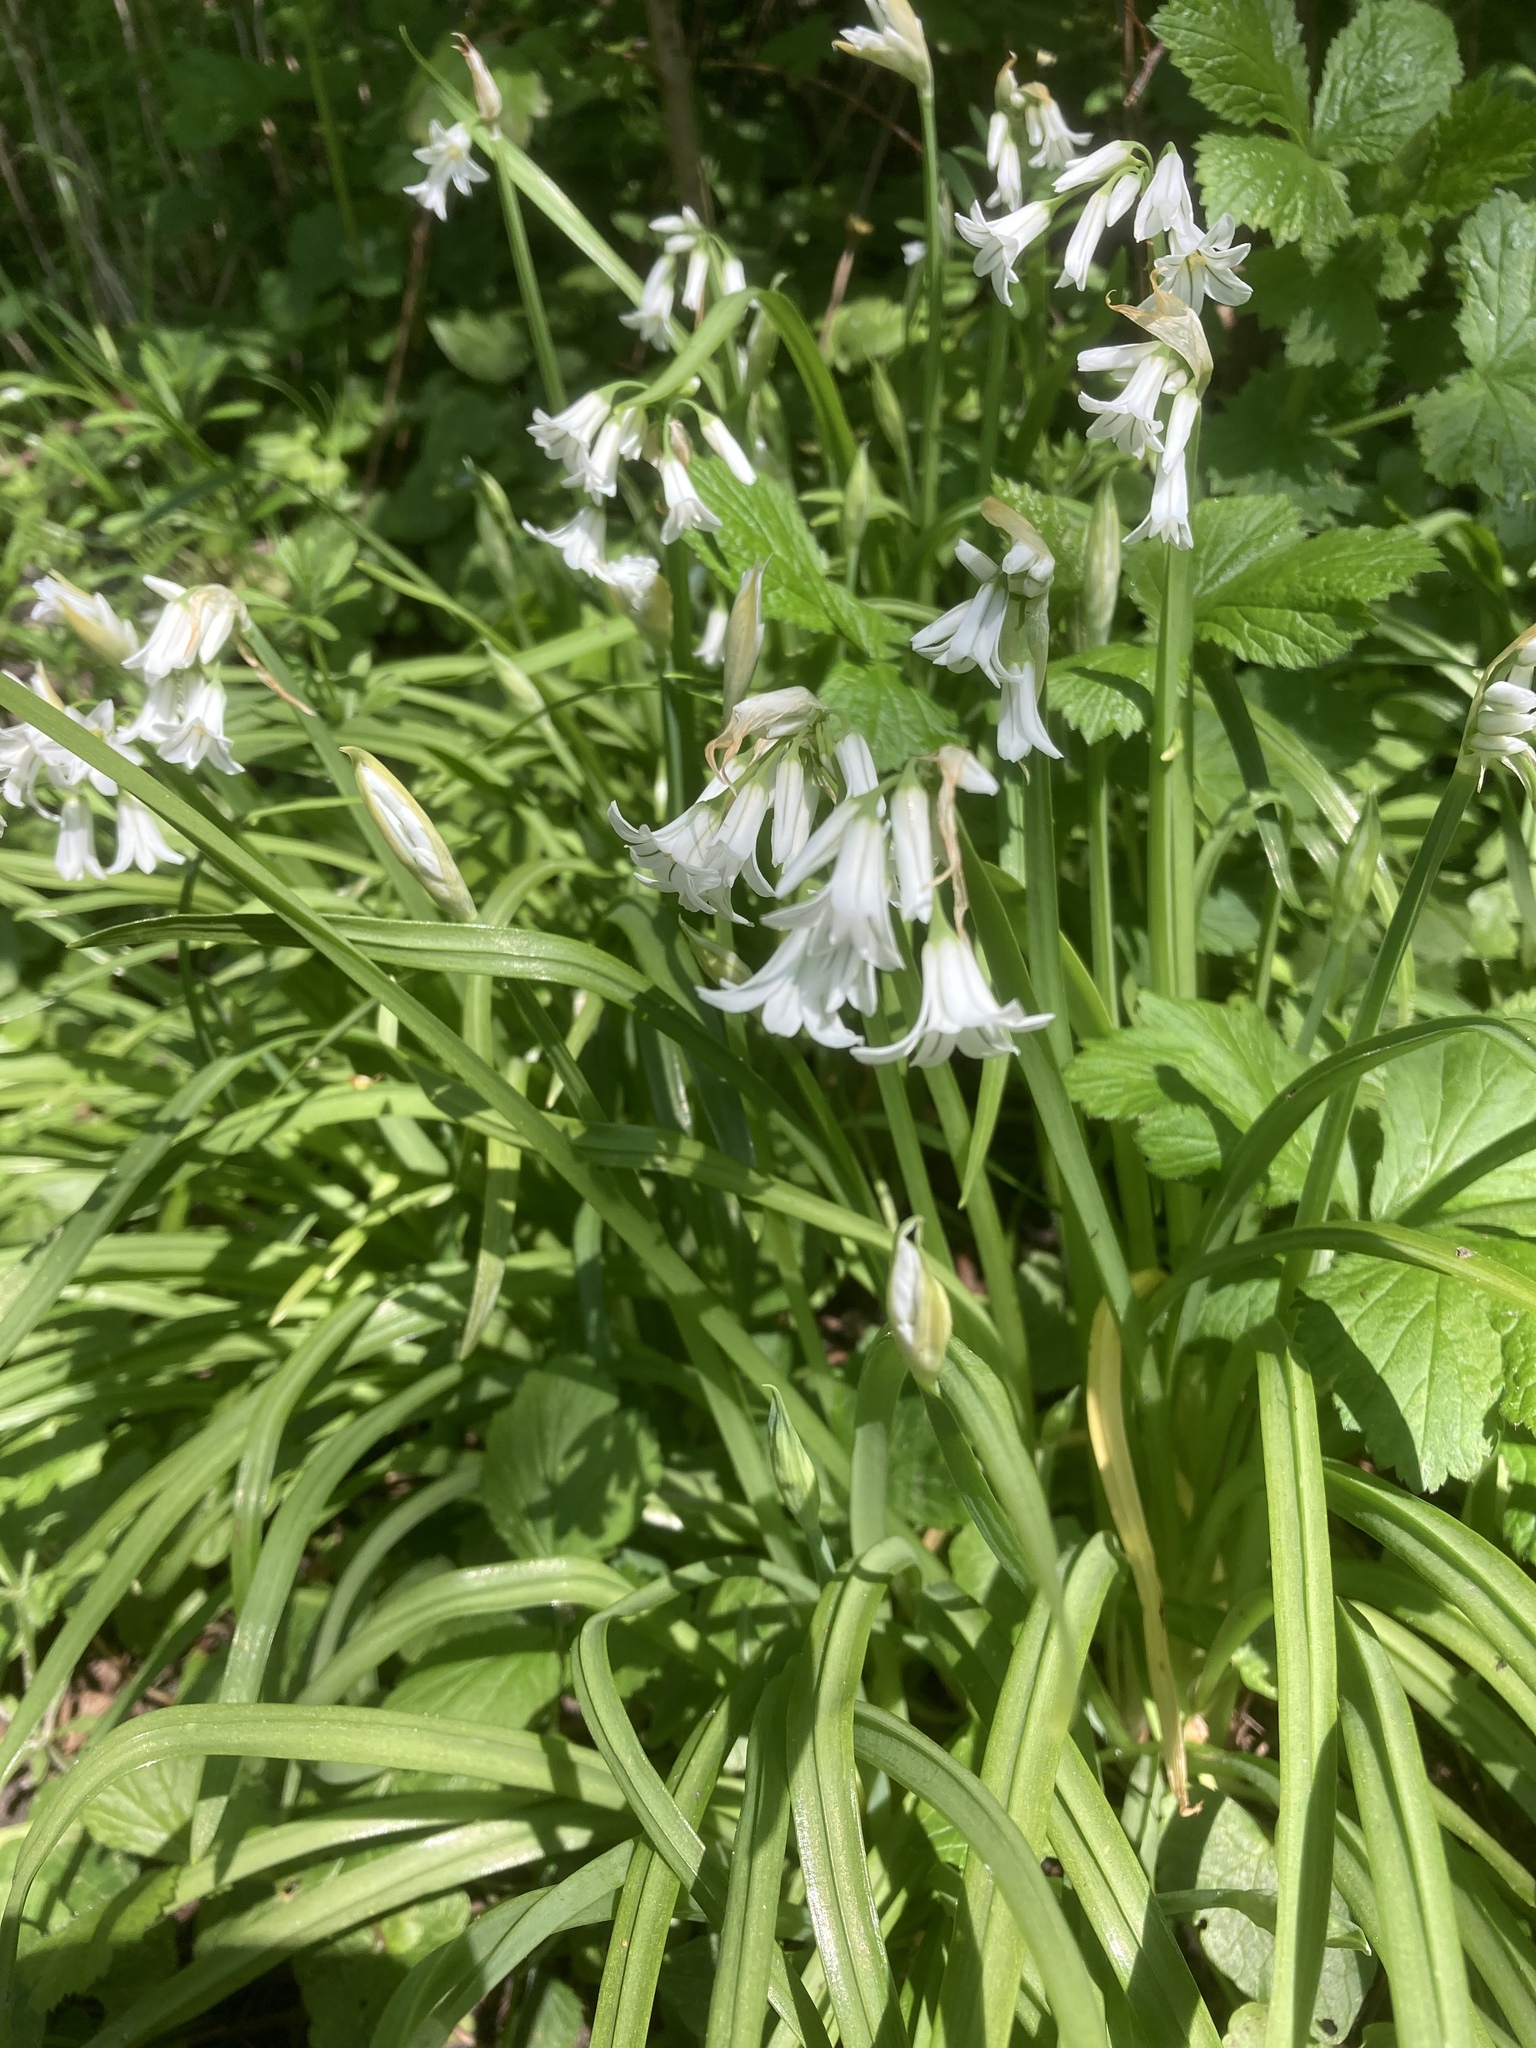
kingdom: Plantae
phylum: Tracheophyta
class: Liliopsida
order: Asparagales
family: Amaryllidaceae
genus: Allium
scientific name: Allium triquetrum
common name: Three-cornered garlic
